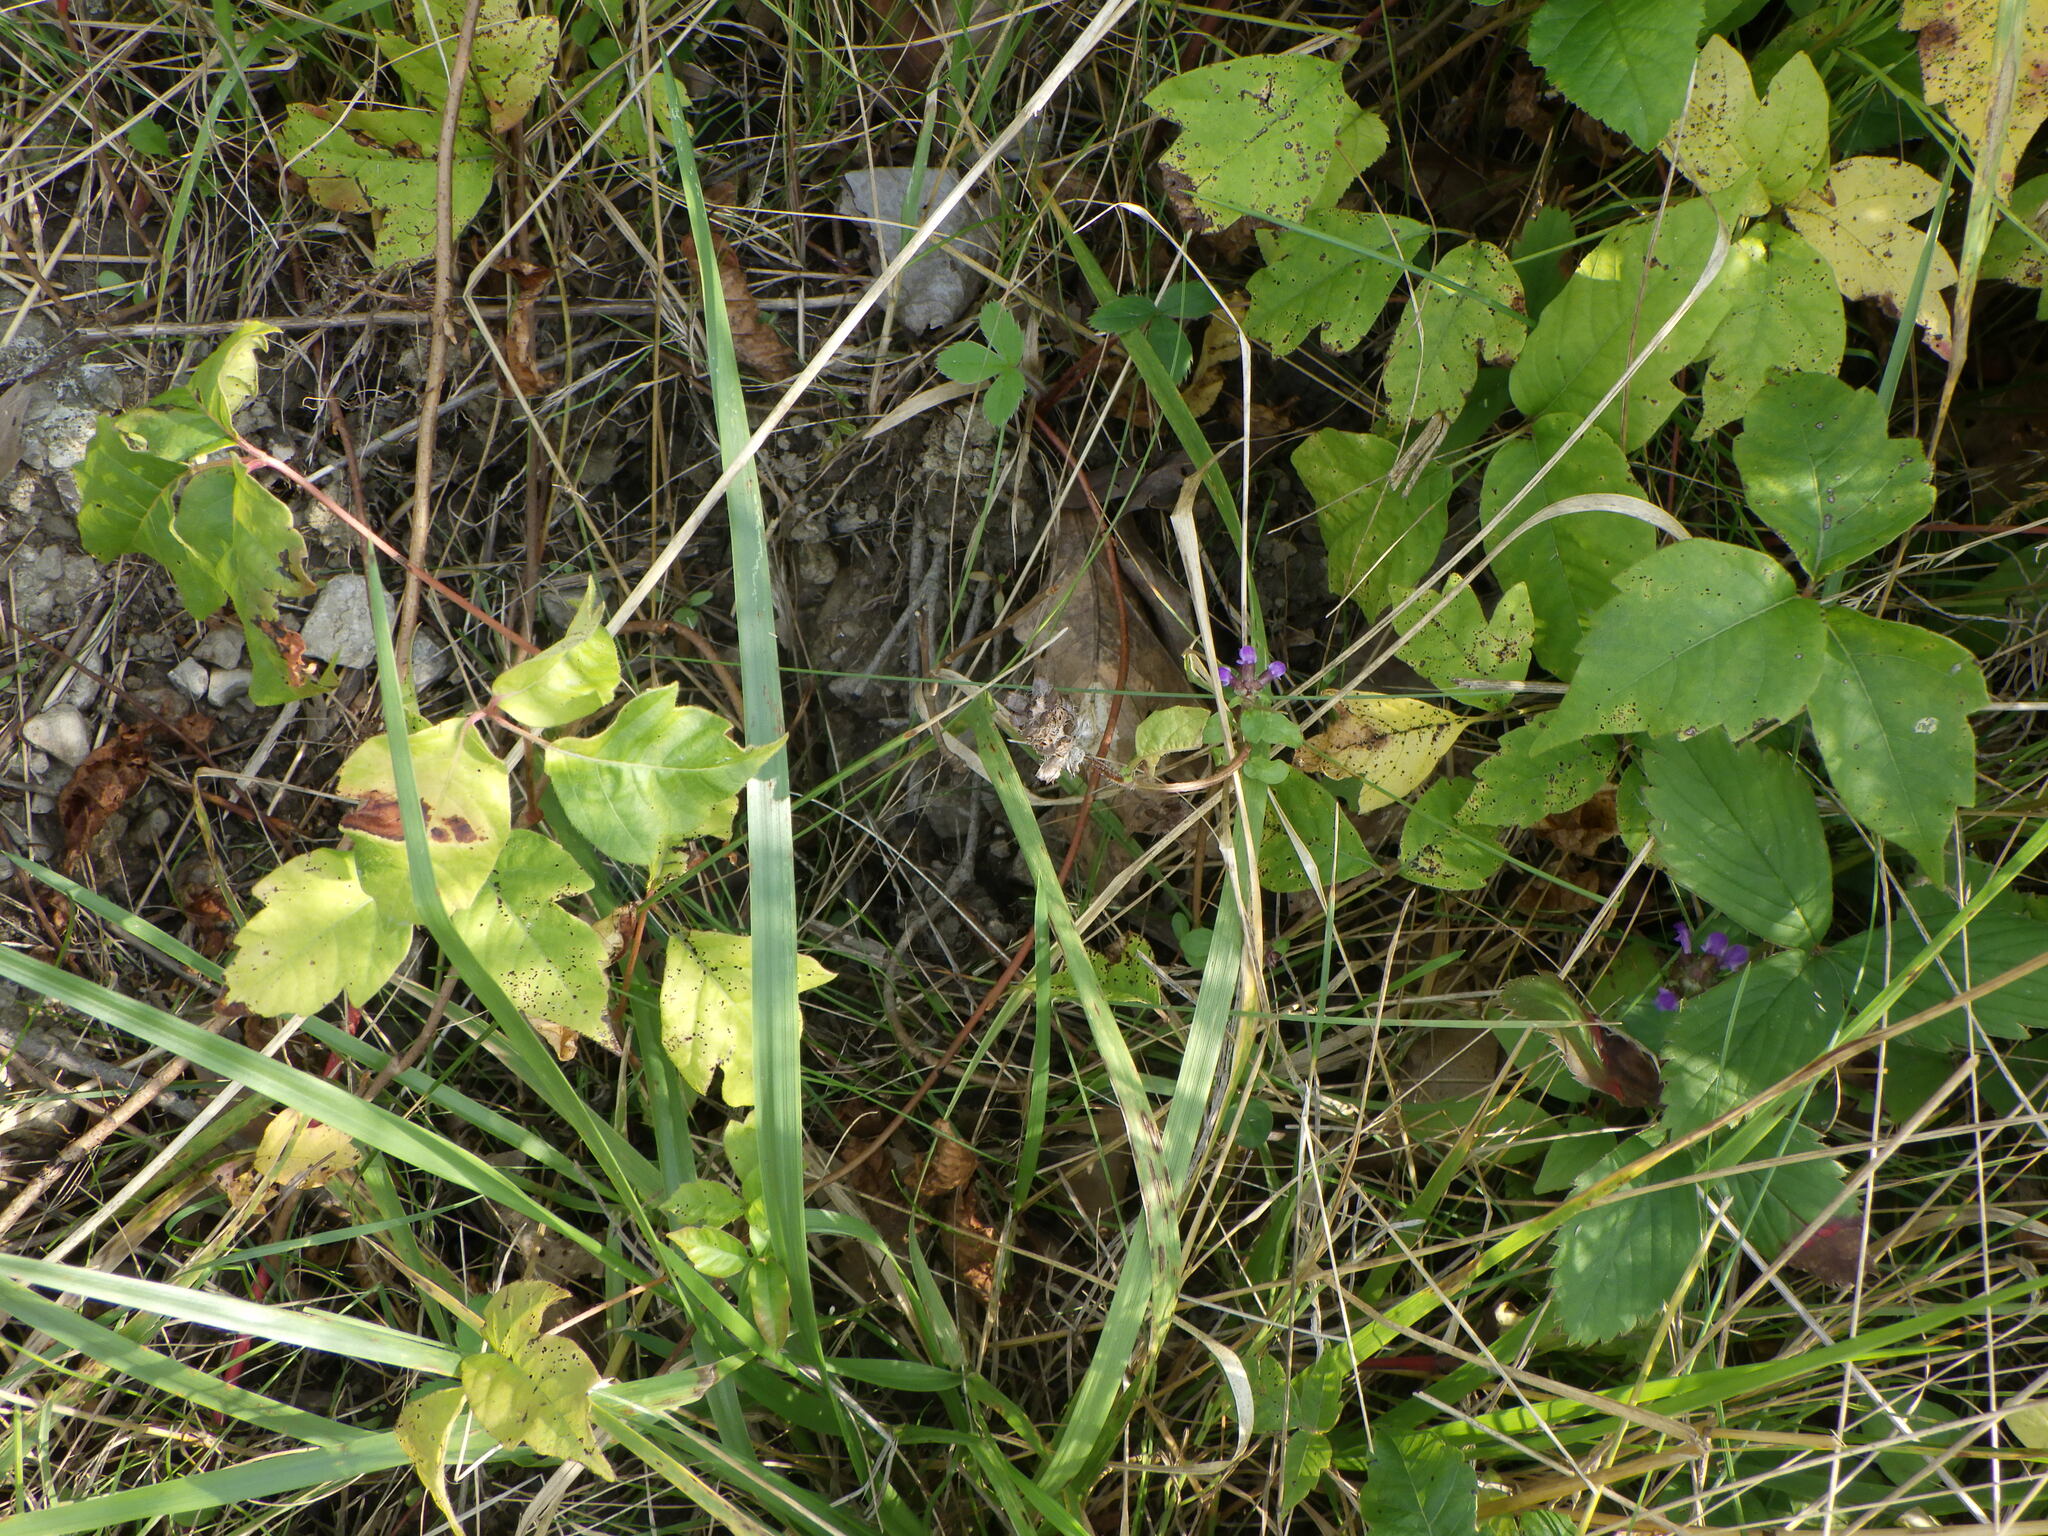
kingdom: Plantae
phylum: Tracheophyta
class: Magnoliopsida
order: Sapindales
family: Anacardiaceae
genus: Toxicodendron
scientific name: Toxicodendron radicans
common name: Poison ivy
